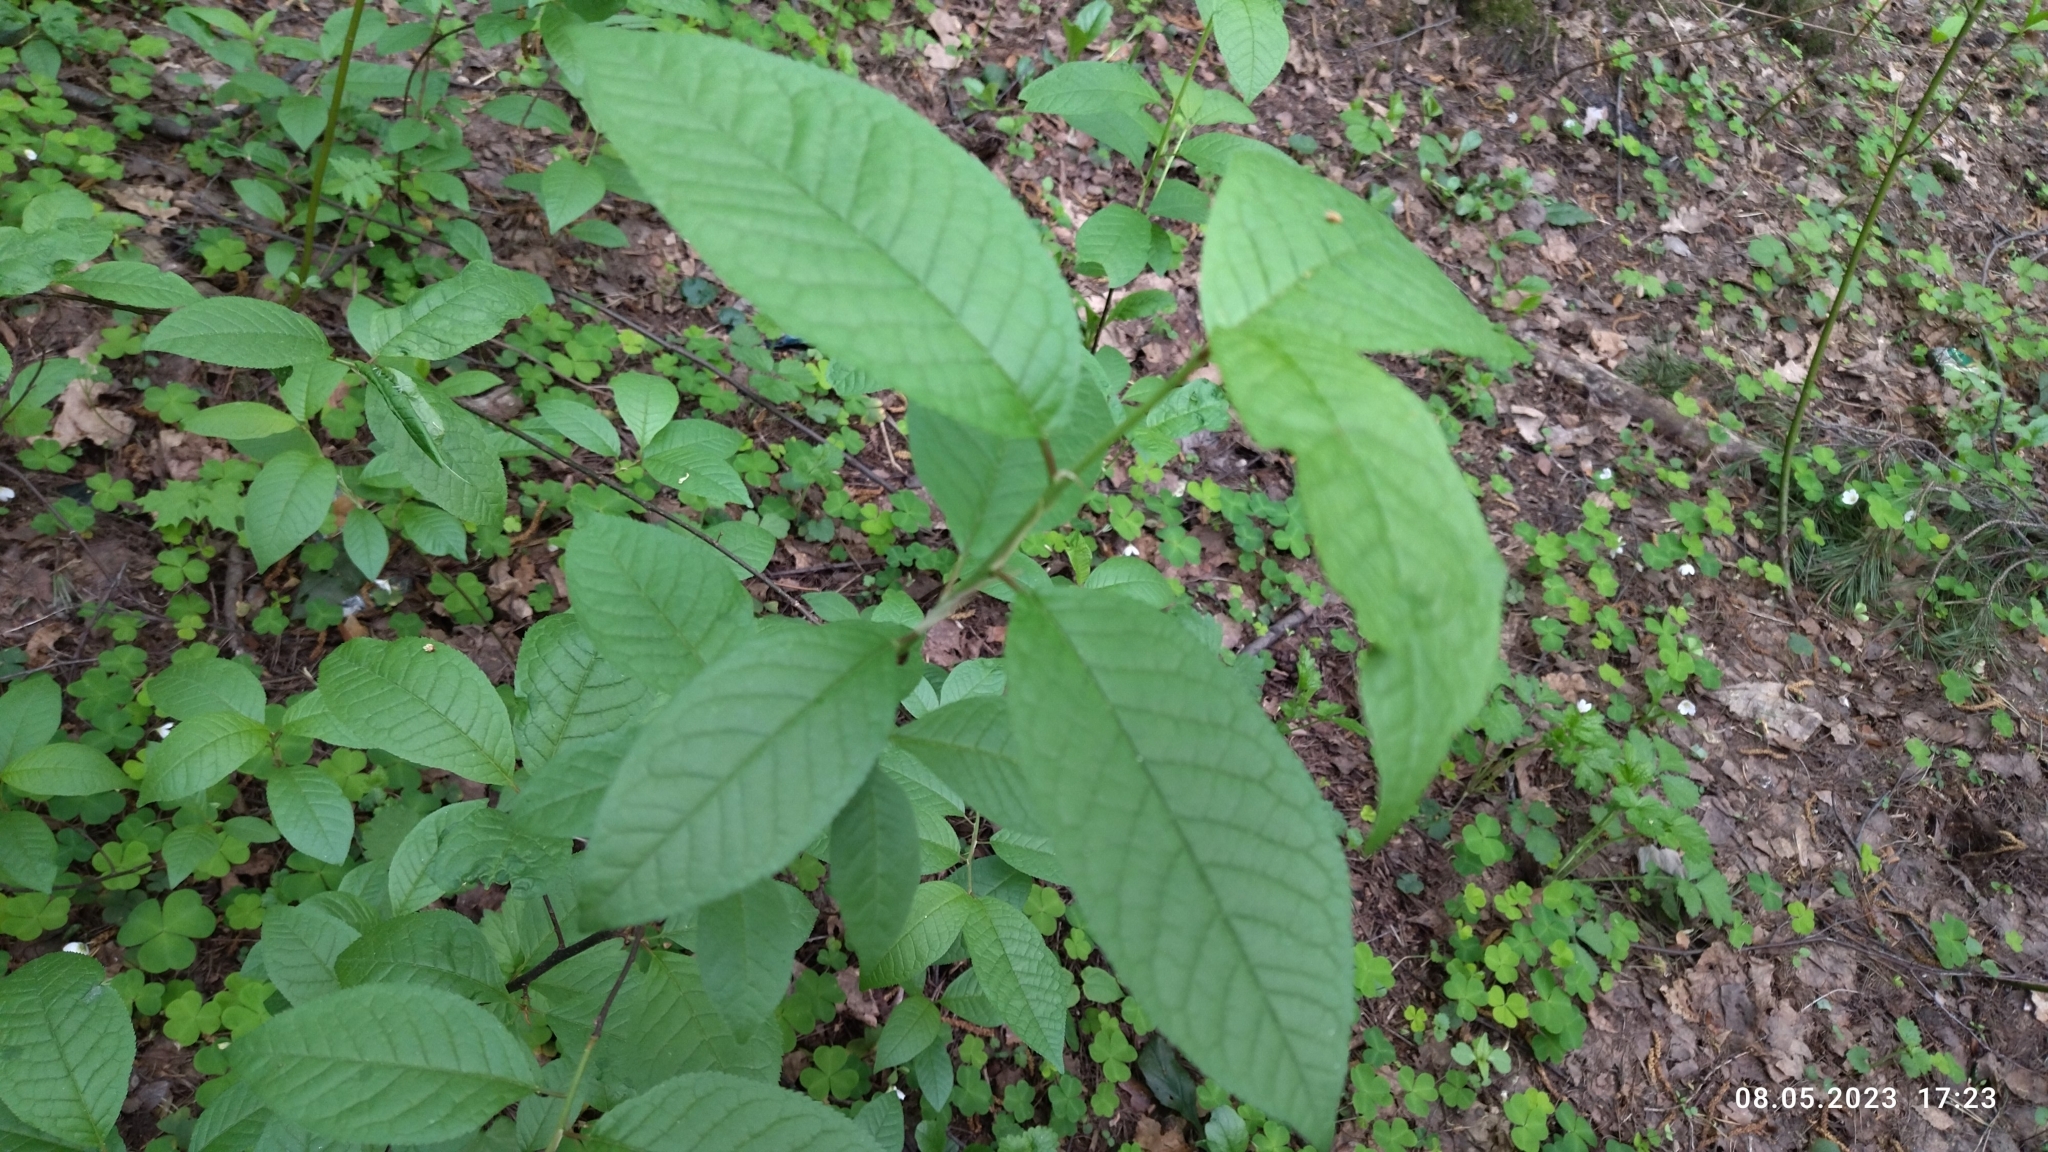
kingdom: Plantae
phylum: Tracheophyta
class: Magnoliopsida
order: Rosales
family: Rosaceae
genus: Prunus
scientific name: Prunus padus
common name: Bird cherry
